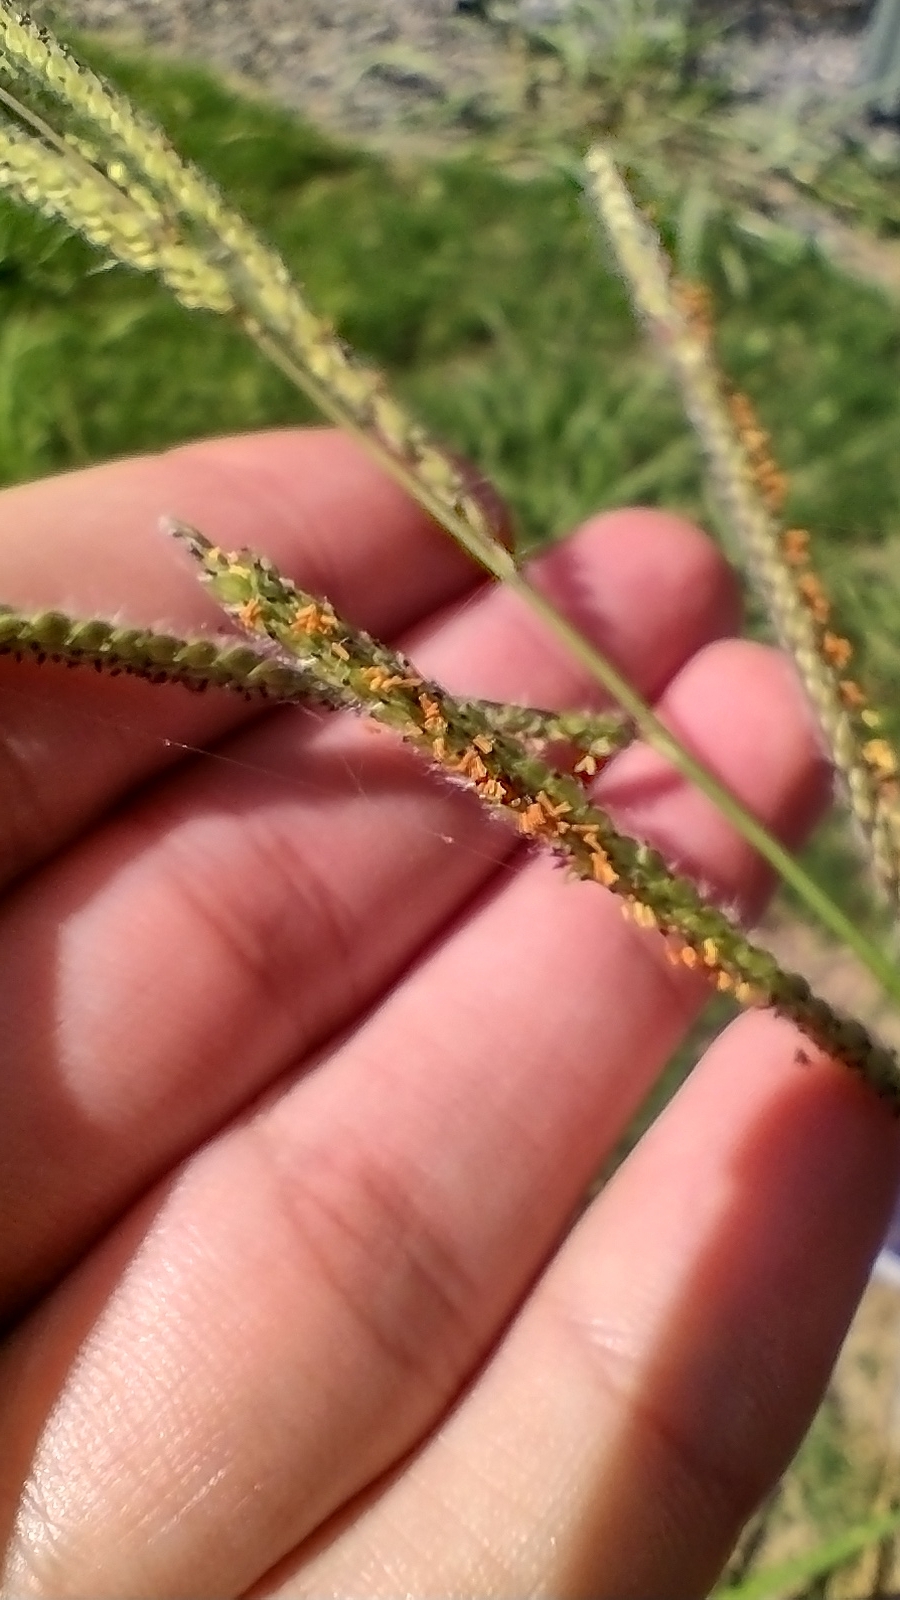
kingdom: Plantae
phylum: Tracheophyta
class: Liliopsida
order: Poales
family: Poaceae
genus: Paspalum
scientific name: Paspalum urvillei
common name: Vasey's grass
